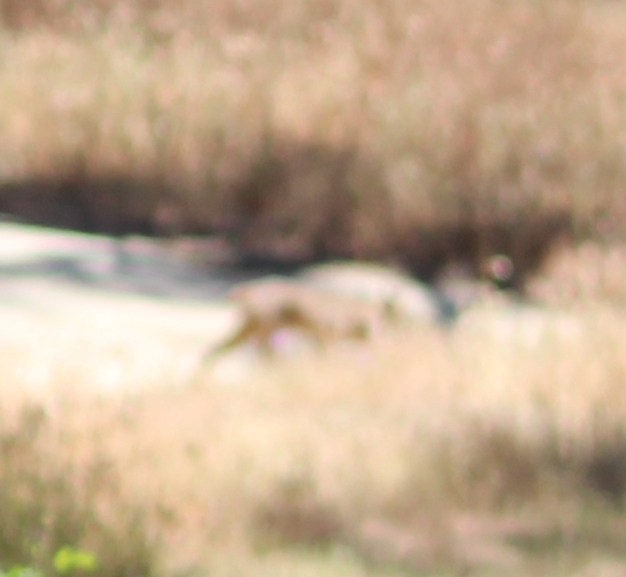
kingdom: Animalia
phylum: Chordata
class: Mammalia
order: Carnivora
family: Felidae
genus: Lynx
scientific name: Lynx rufus
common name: Bobcat
